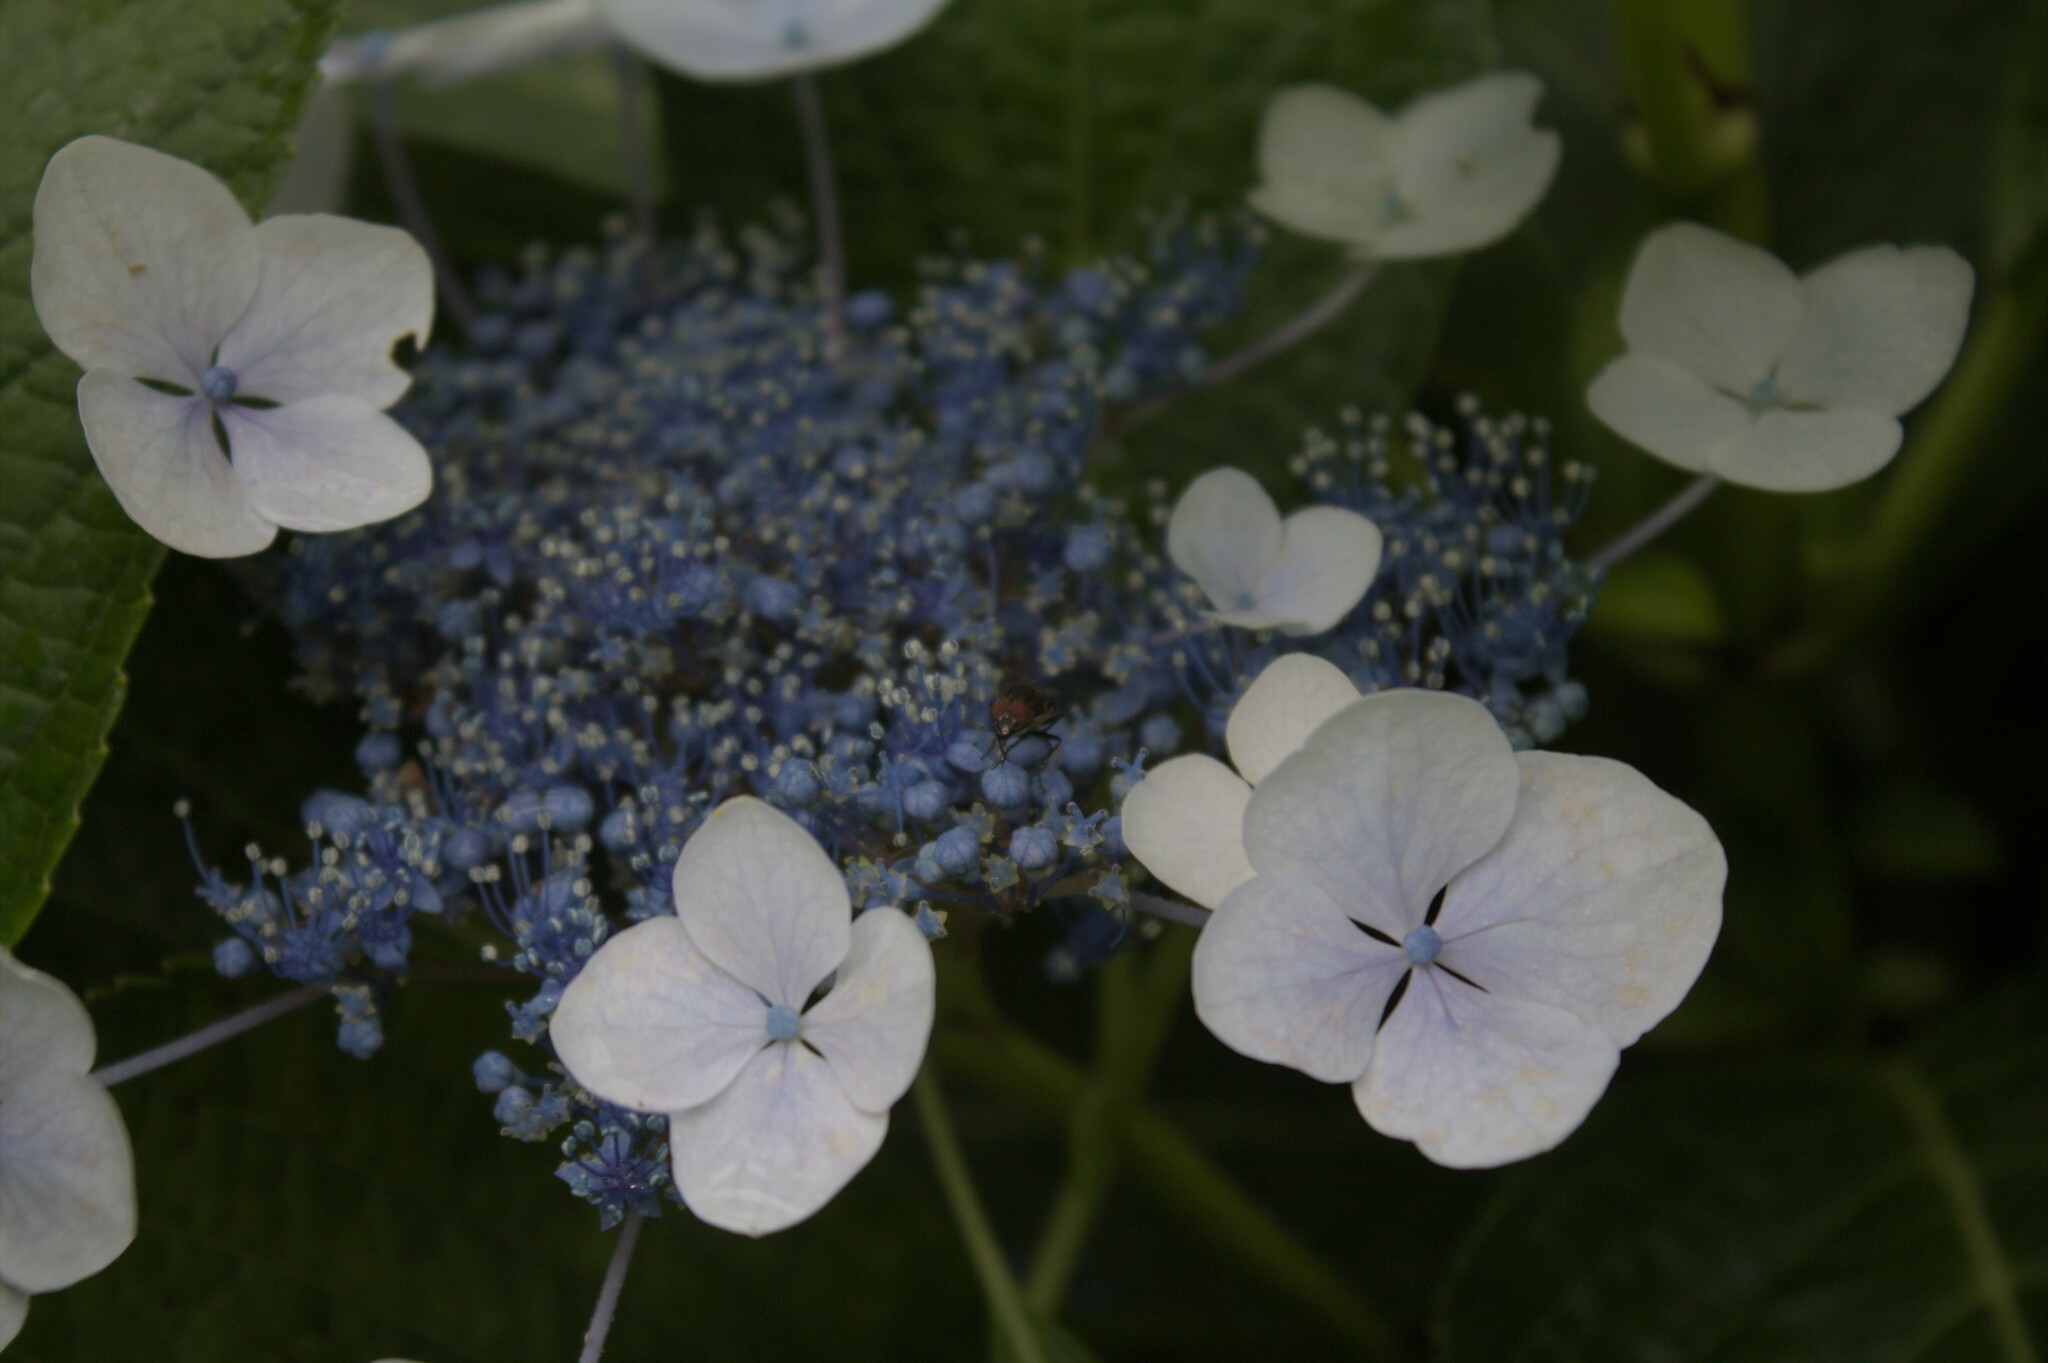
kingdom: Plantae
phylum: Tracheophyta
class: Magnoliopsida
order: Cornales
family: Hydrangeaceae
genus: Hydrangea
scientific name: Hydrangea macrophylla
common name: Hydrangea
